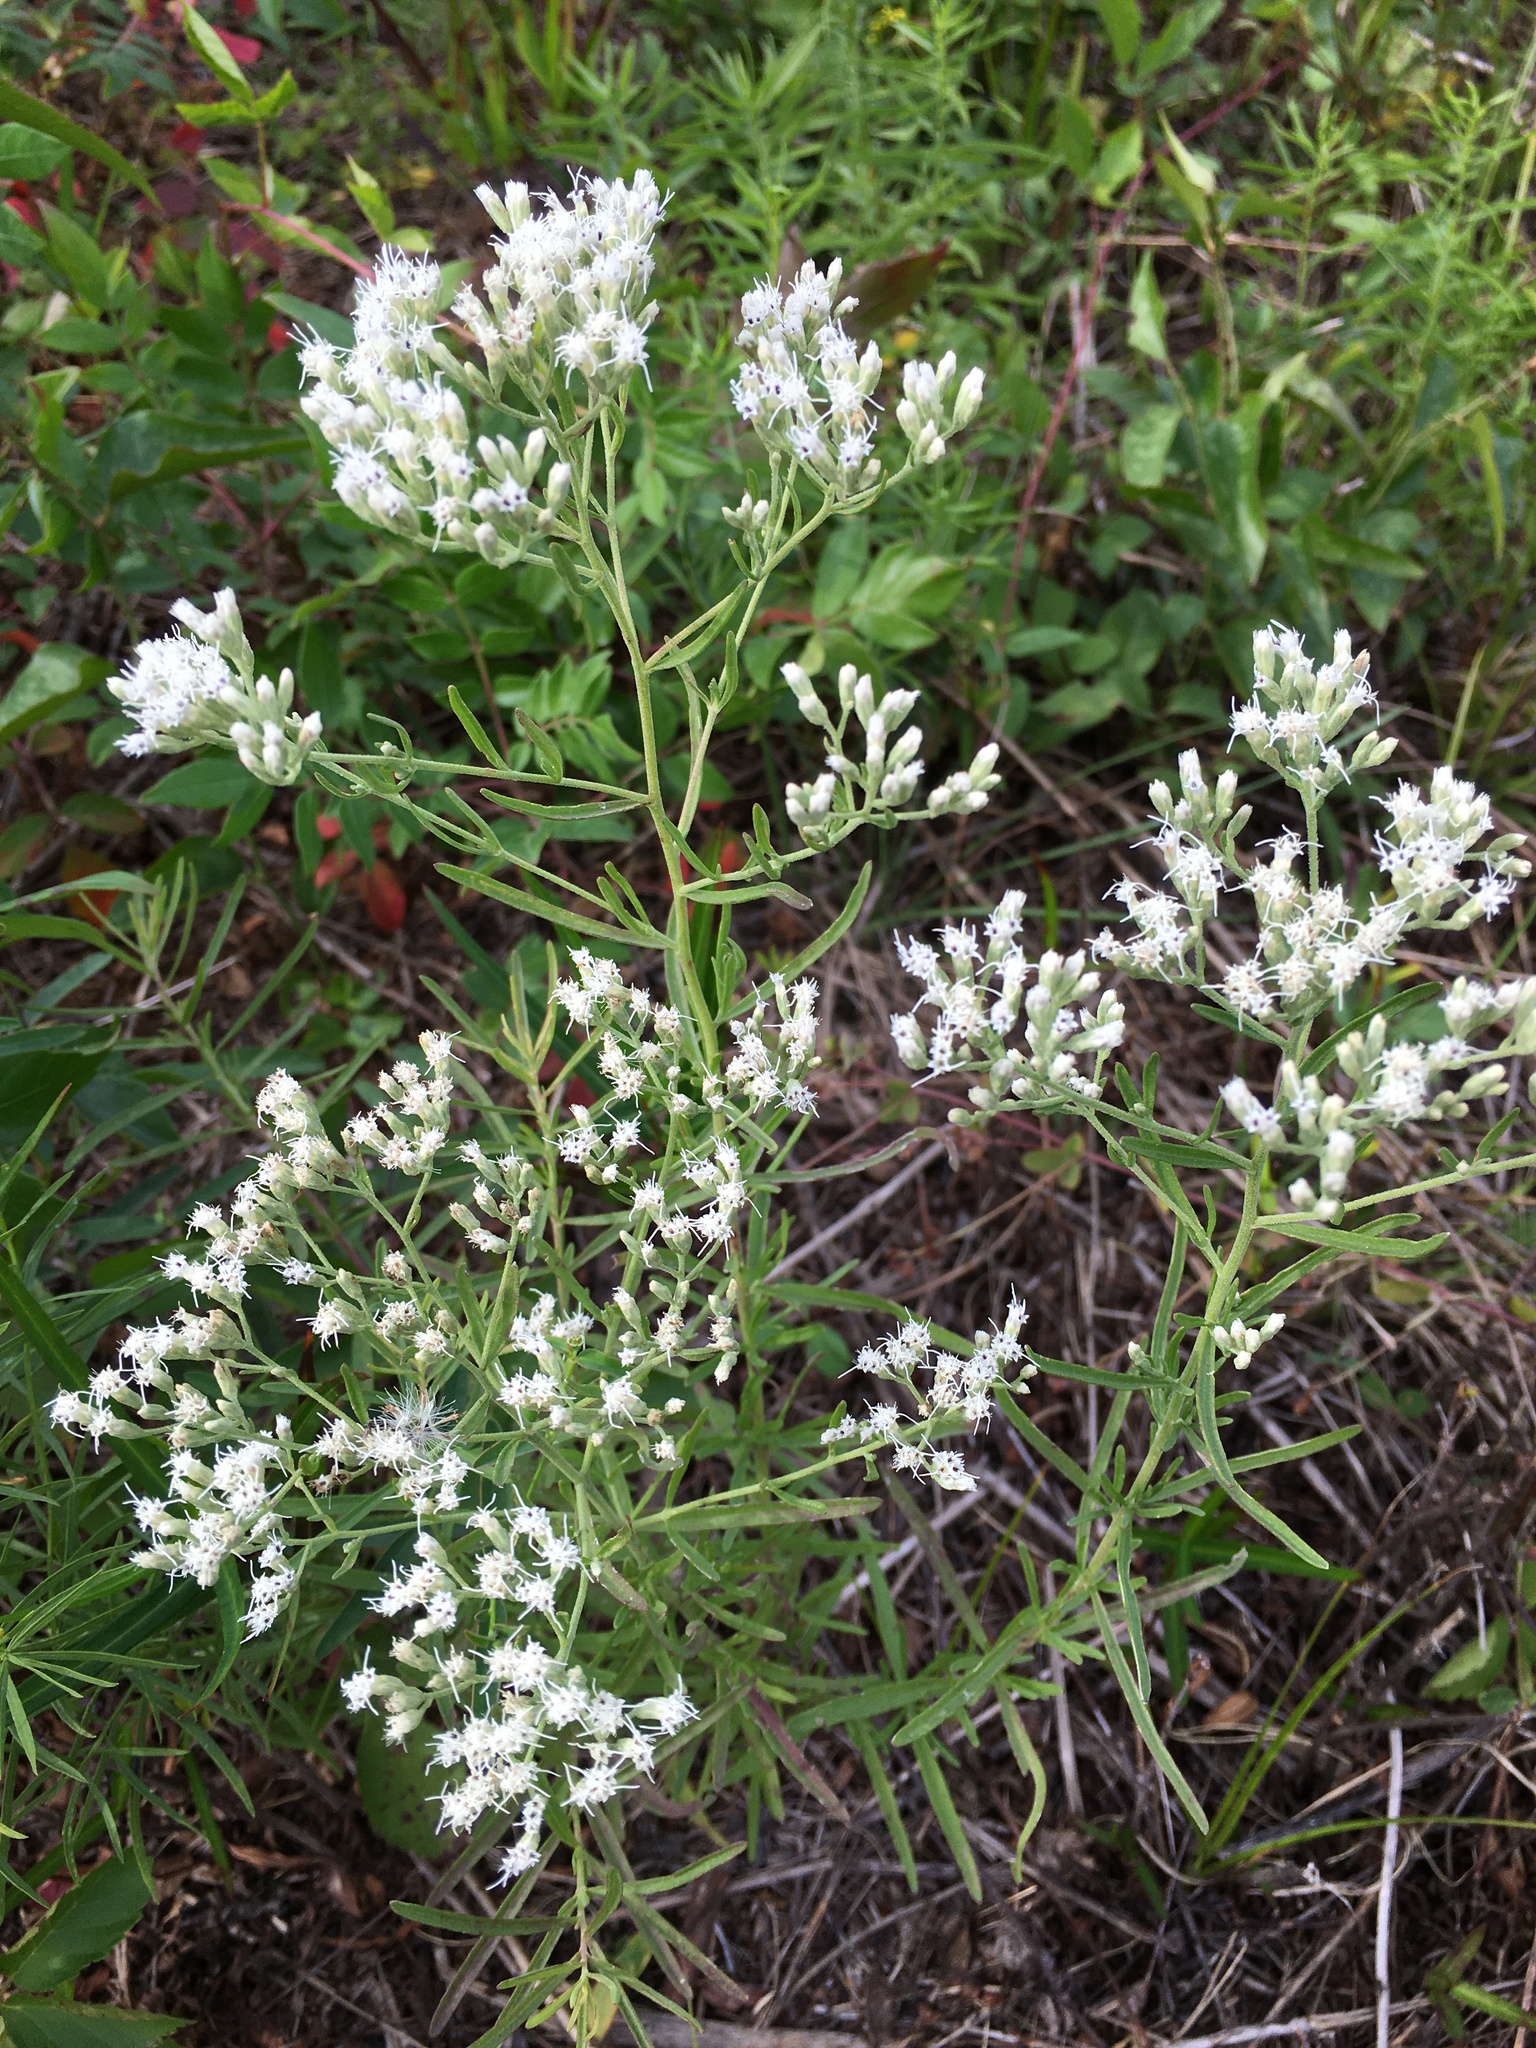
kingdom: Plantae
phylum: Tracheophyta
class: Magnoliopsida
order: Asterales
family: Asteraceae
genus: Eupatorium
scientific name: Eupatorium hyssopifolium
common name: Hyssop-leaf thoroughwort
